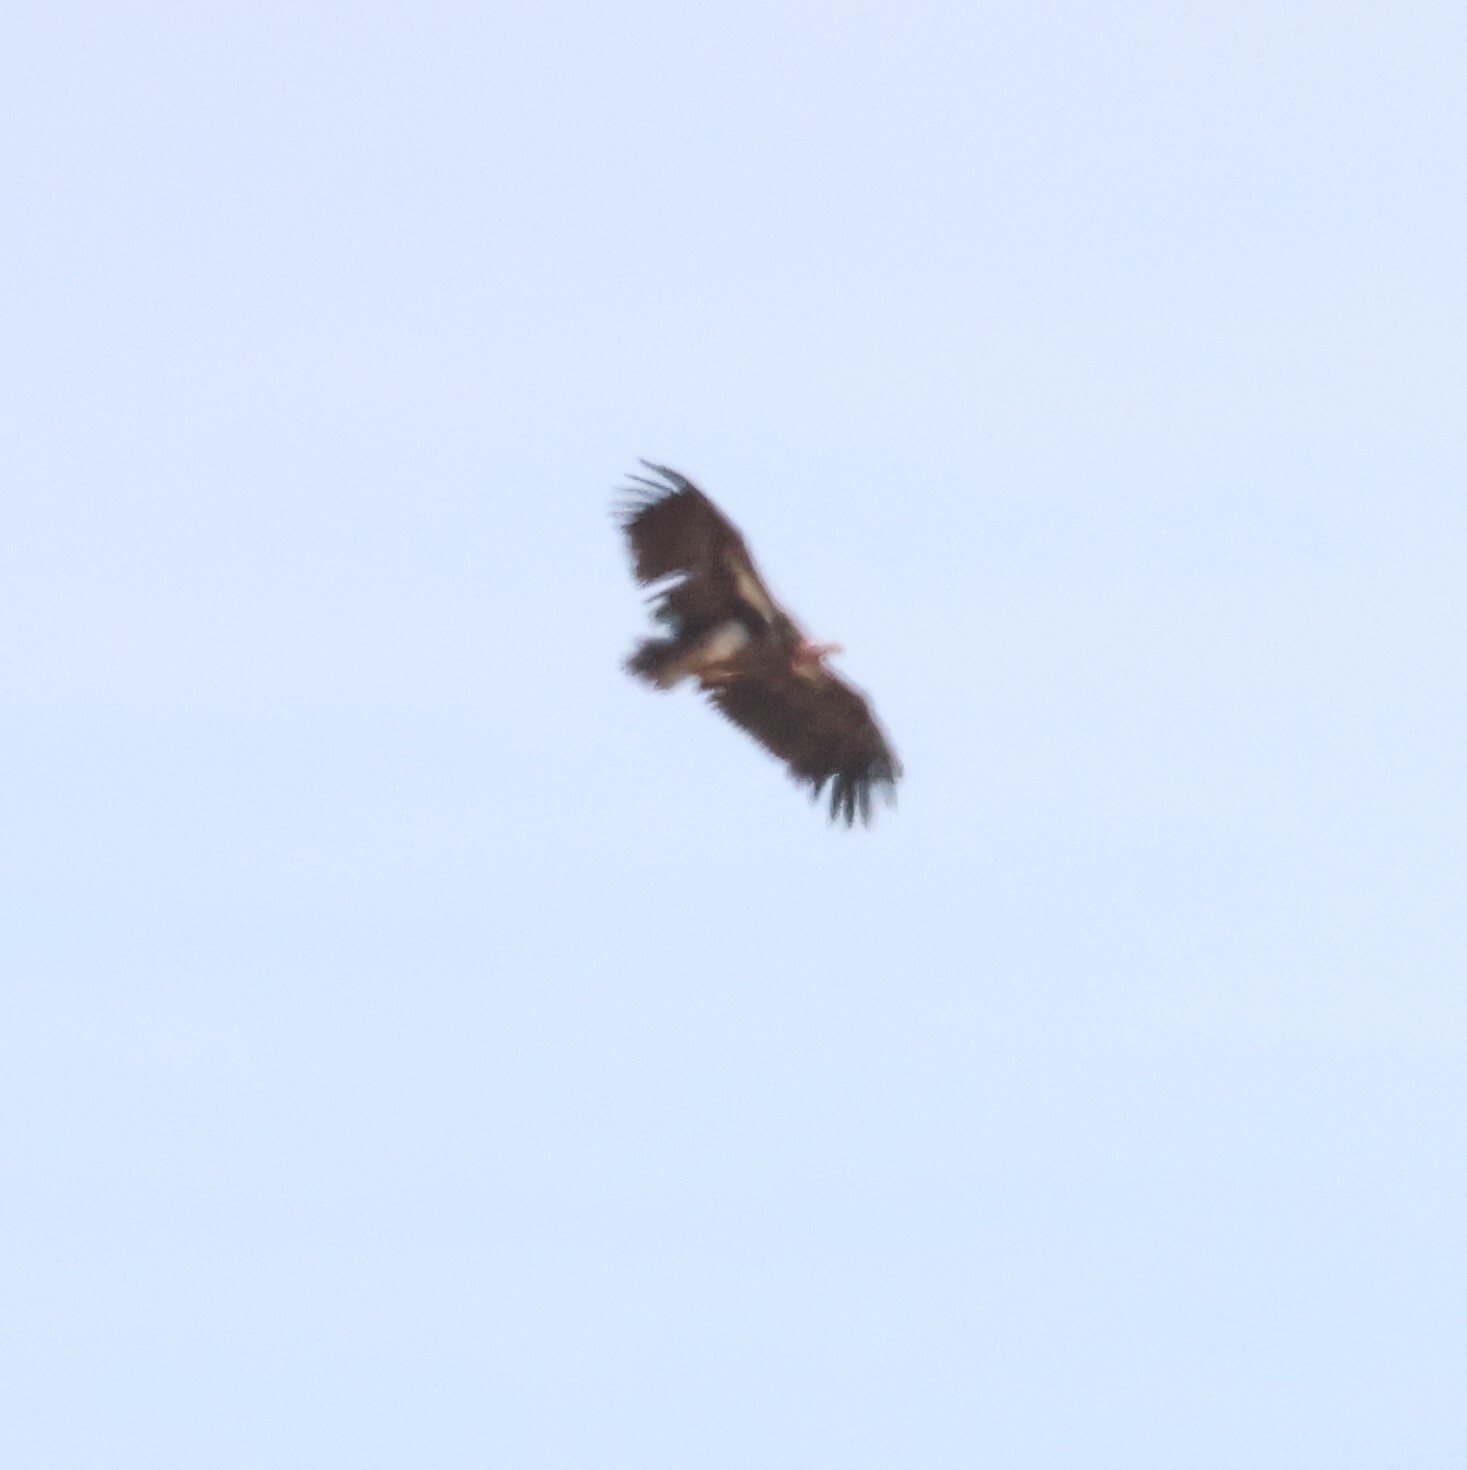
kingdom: Animalia
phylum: Chordata
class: Aves
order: Accipitriformes
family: Accipitridae
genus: Torgos
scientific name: Torgos tracheliotos
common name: Lappet-faced vulture
